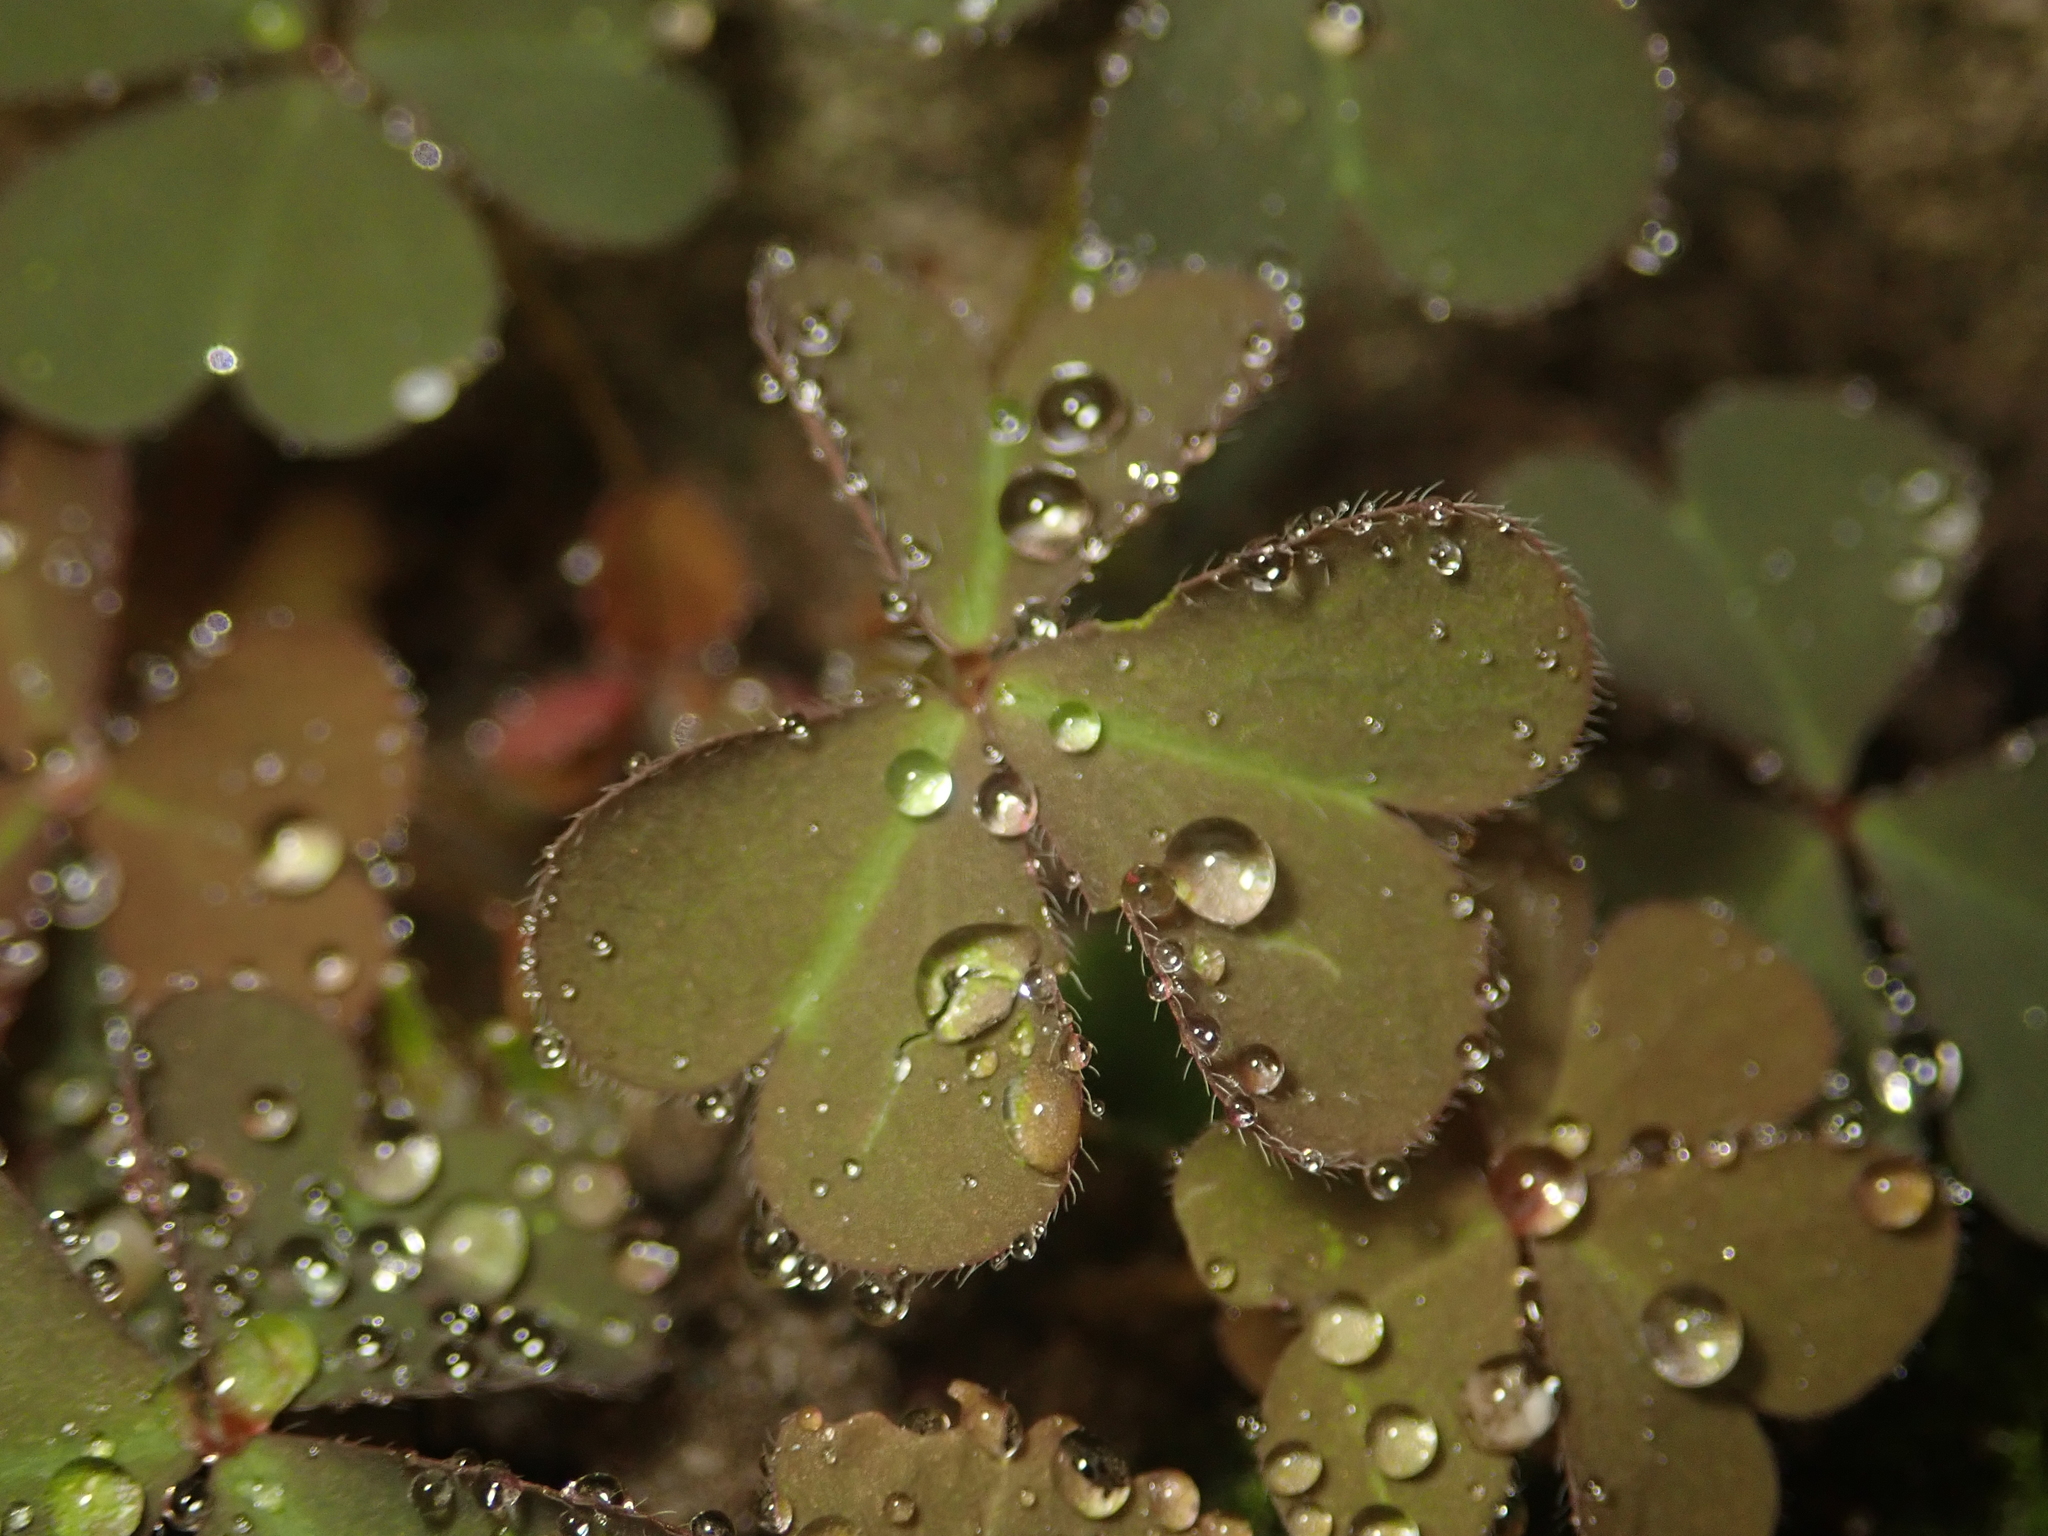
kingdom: Plantae
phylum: Tracheophyta
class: Magnoliopsida
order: Oxalidales
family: Oxalidaceae
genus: Oxalis
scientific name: Oxalis corniculata
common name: Procumbent yellow-sorrel
